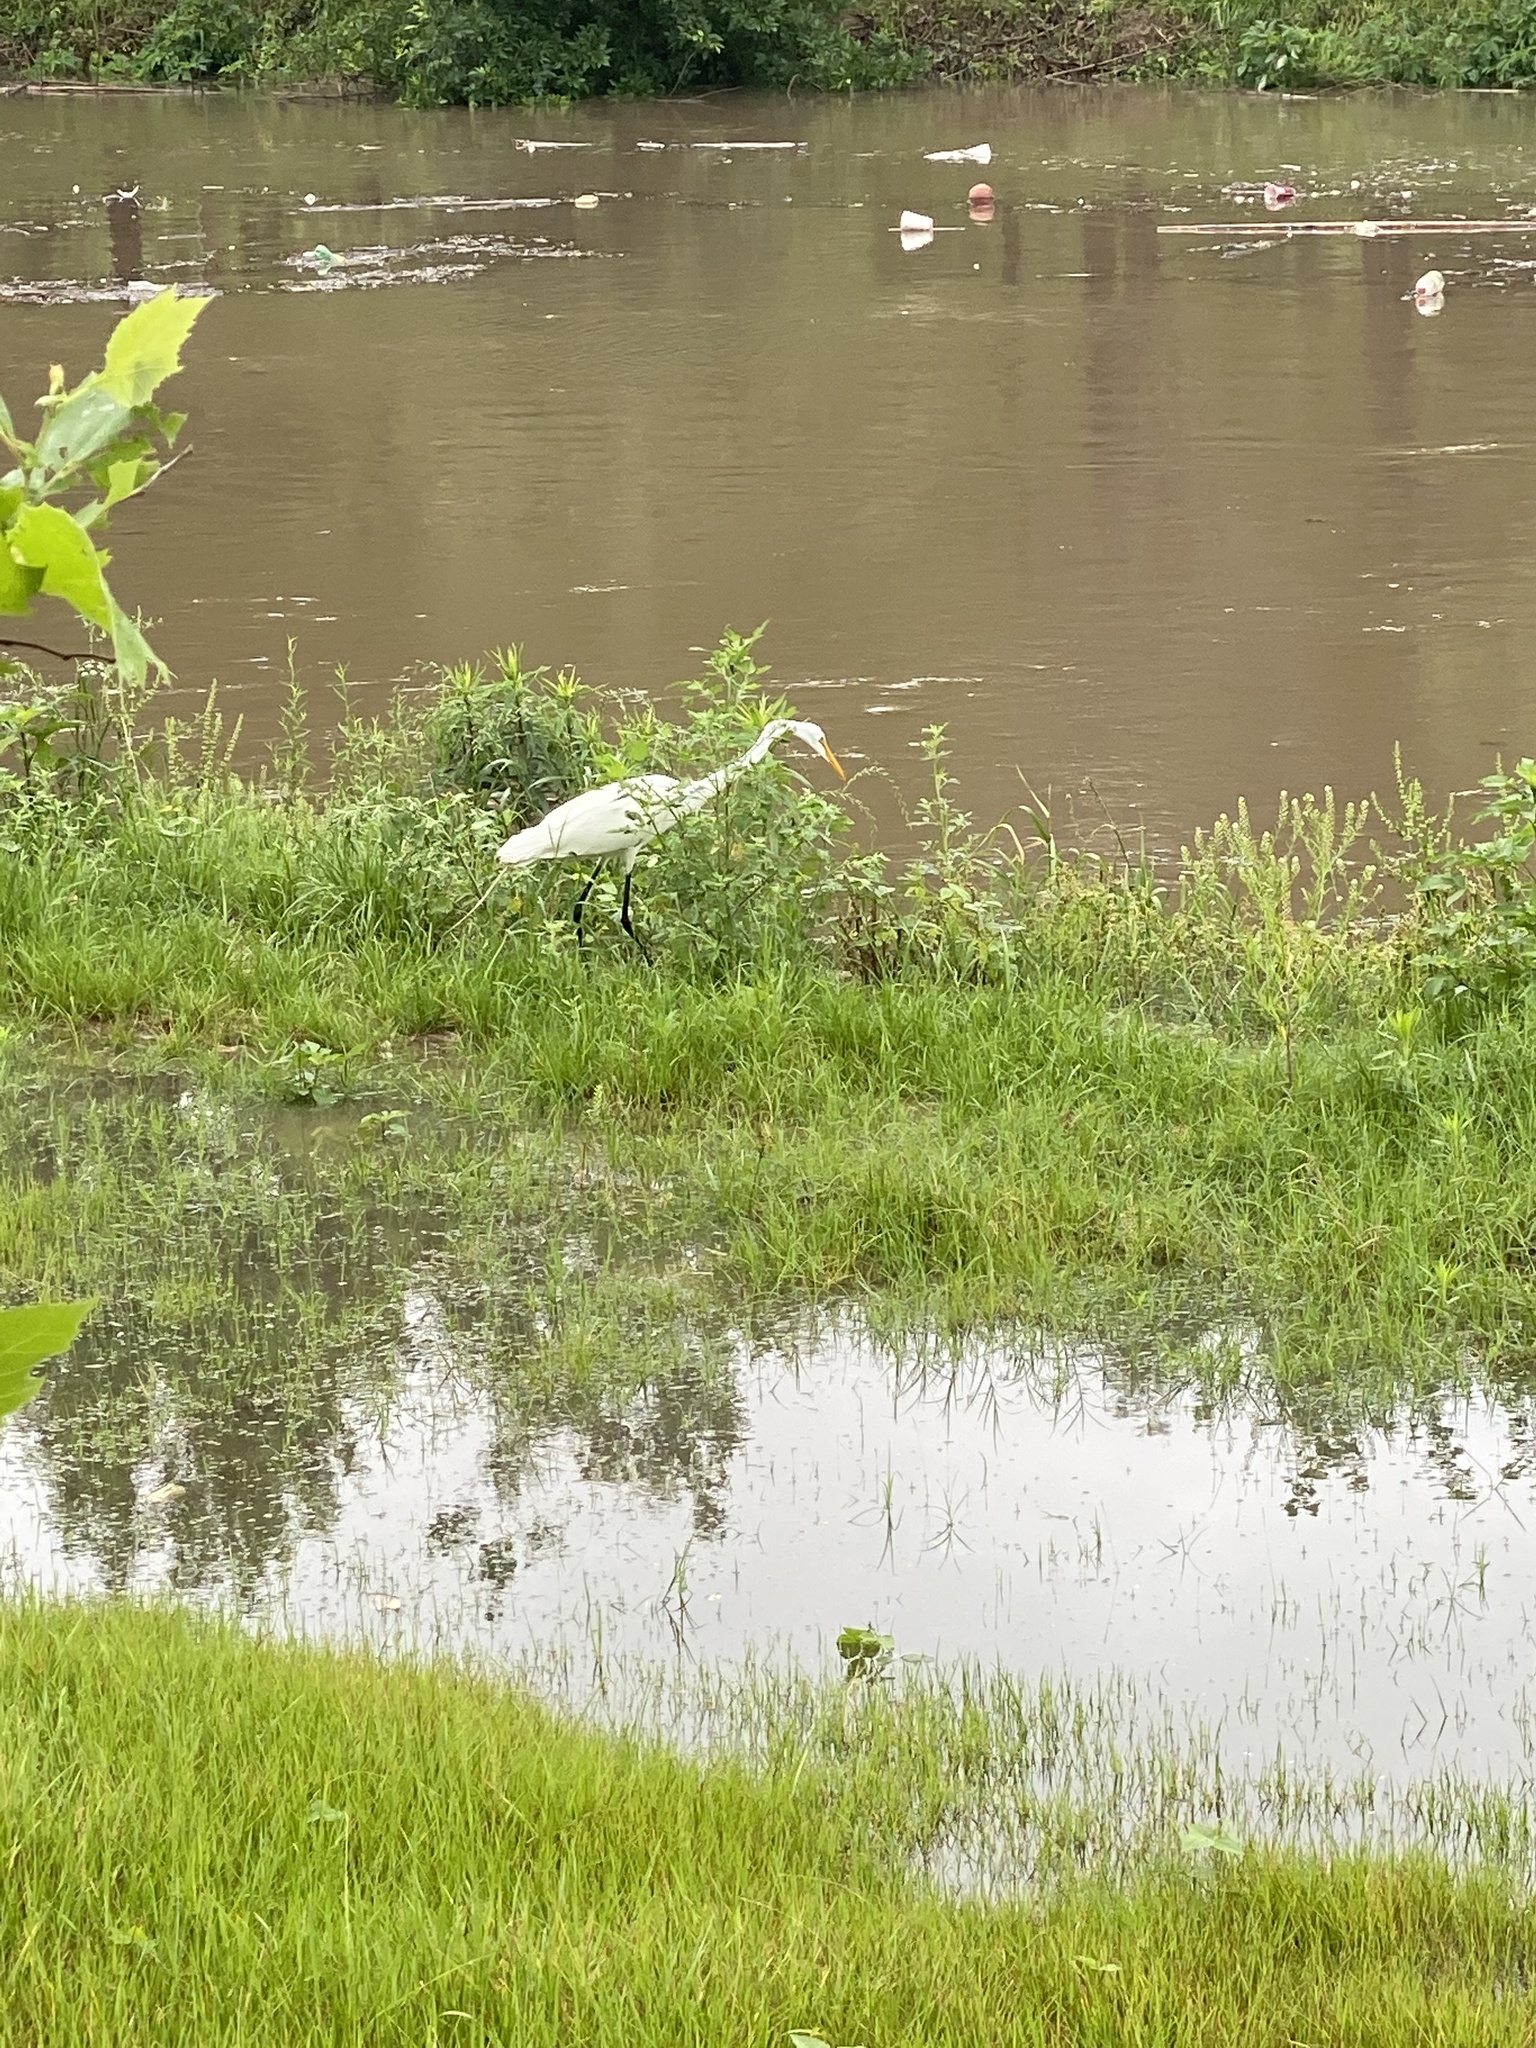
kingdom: Animalia
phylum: Chordata
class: Aves
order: Pelecaniformes
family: Ardeidae
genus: Ardea
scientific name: Ardea alba
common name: Great egret
